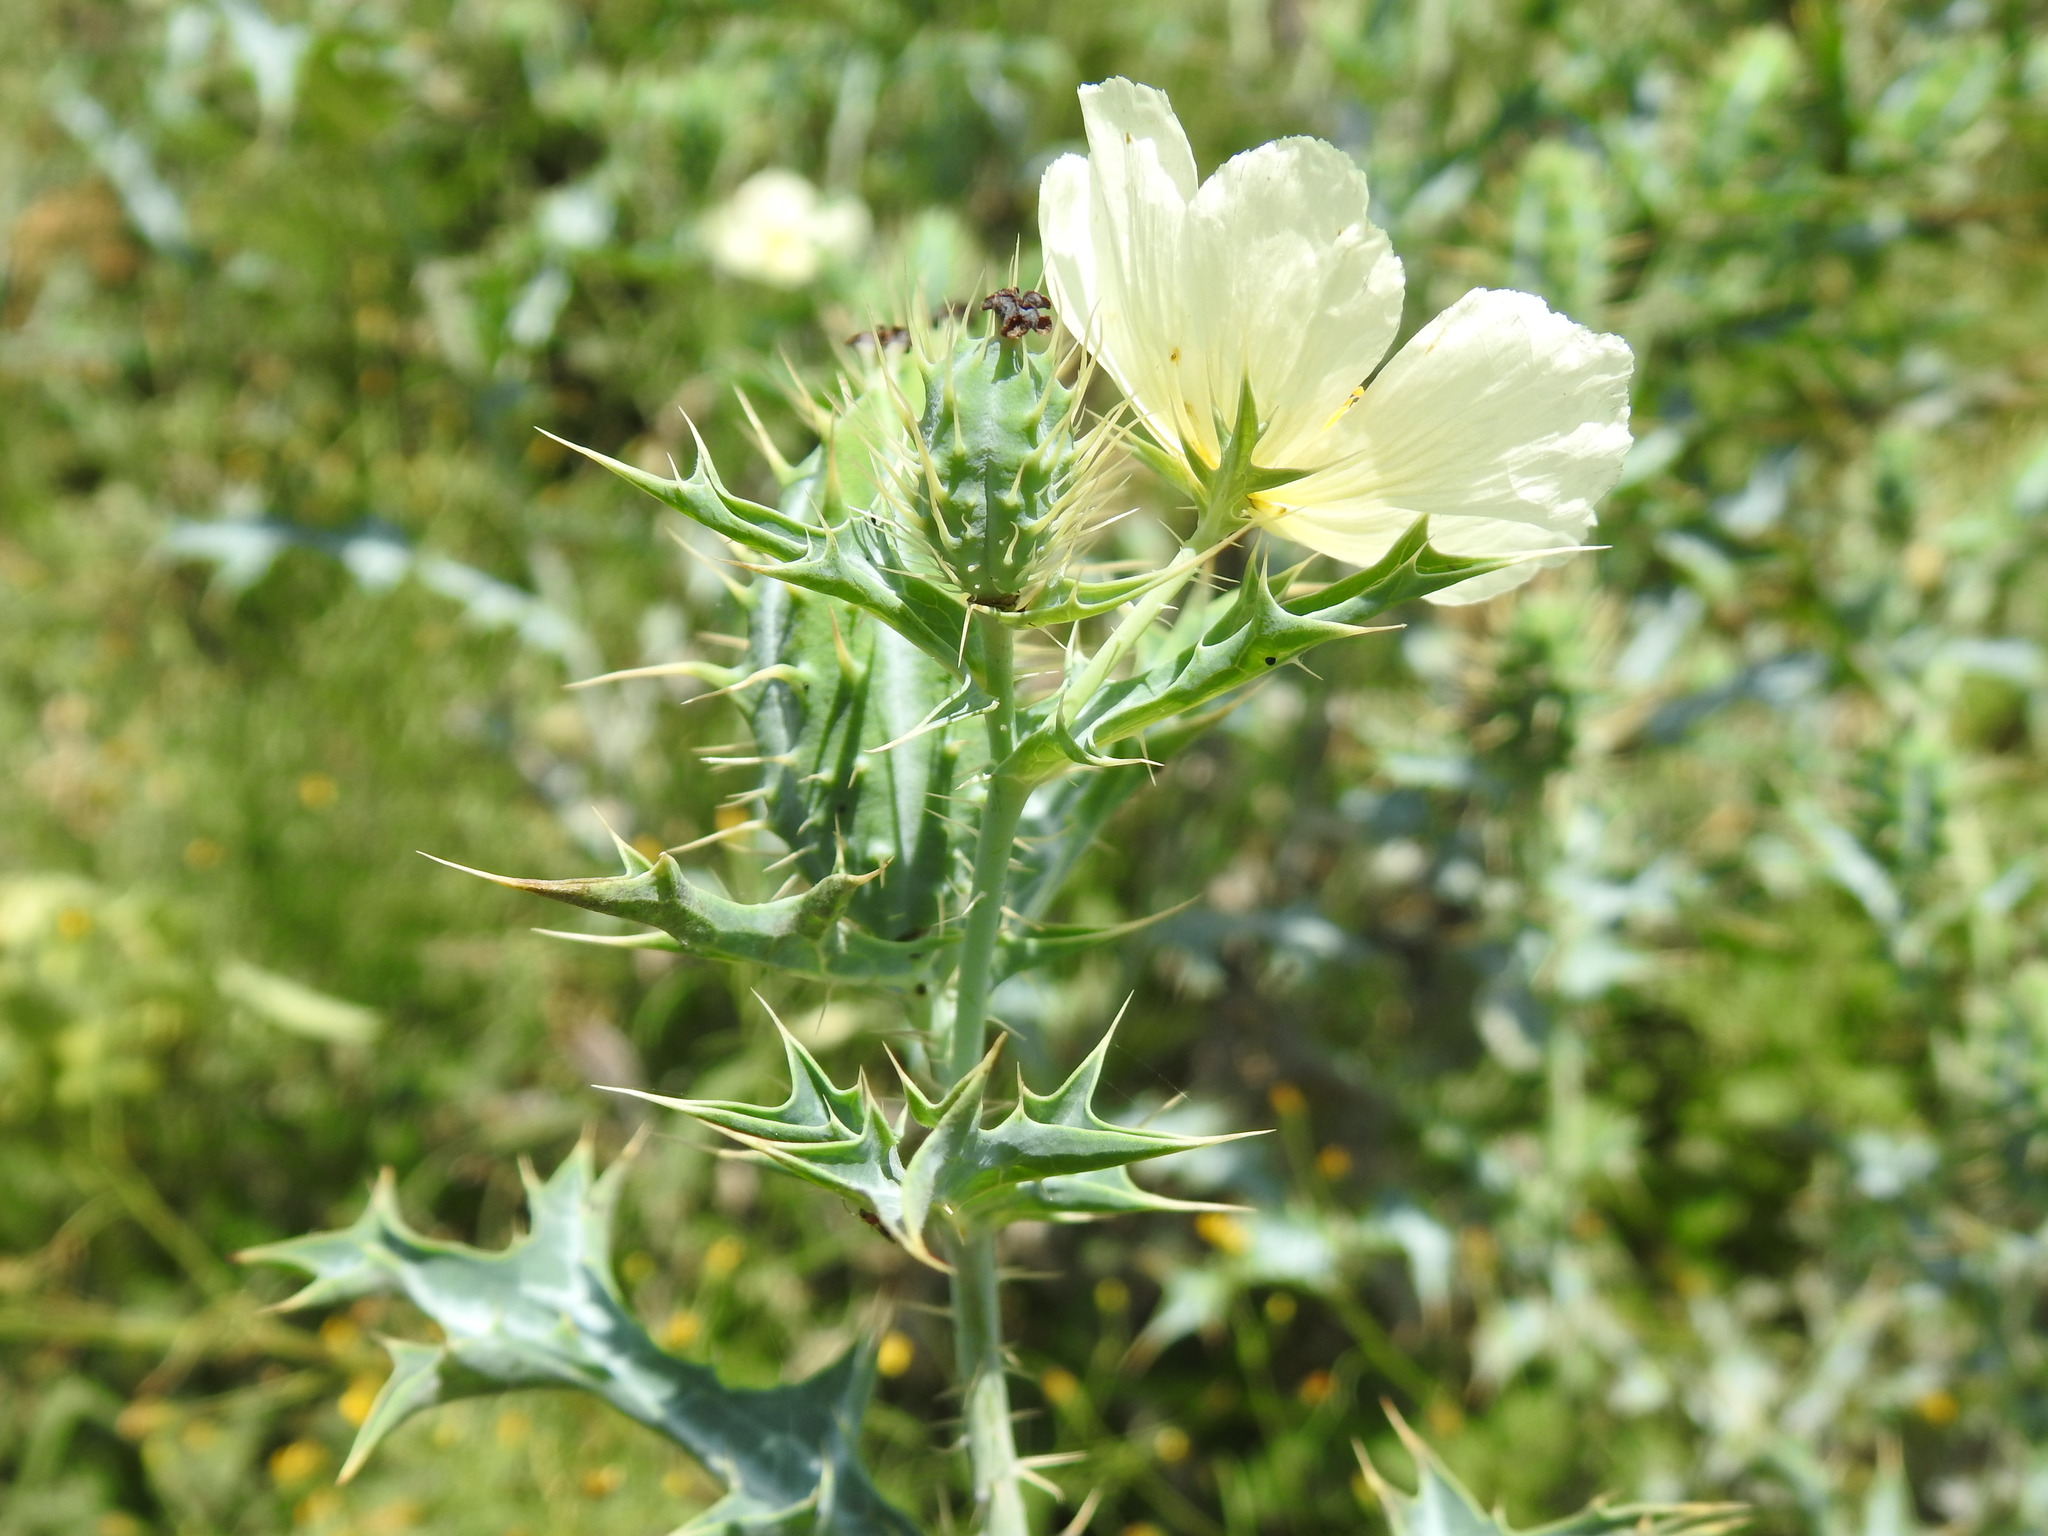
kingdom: Plantae
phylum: Tracheophyta
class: Magnoliopsida
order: Ranunculales
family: Papaveraceae
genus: Argemone
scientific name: Argemone ochroleuca
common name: White-flower mexican-poppy
